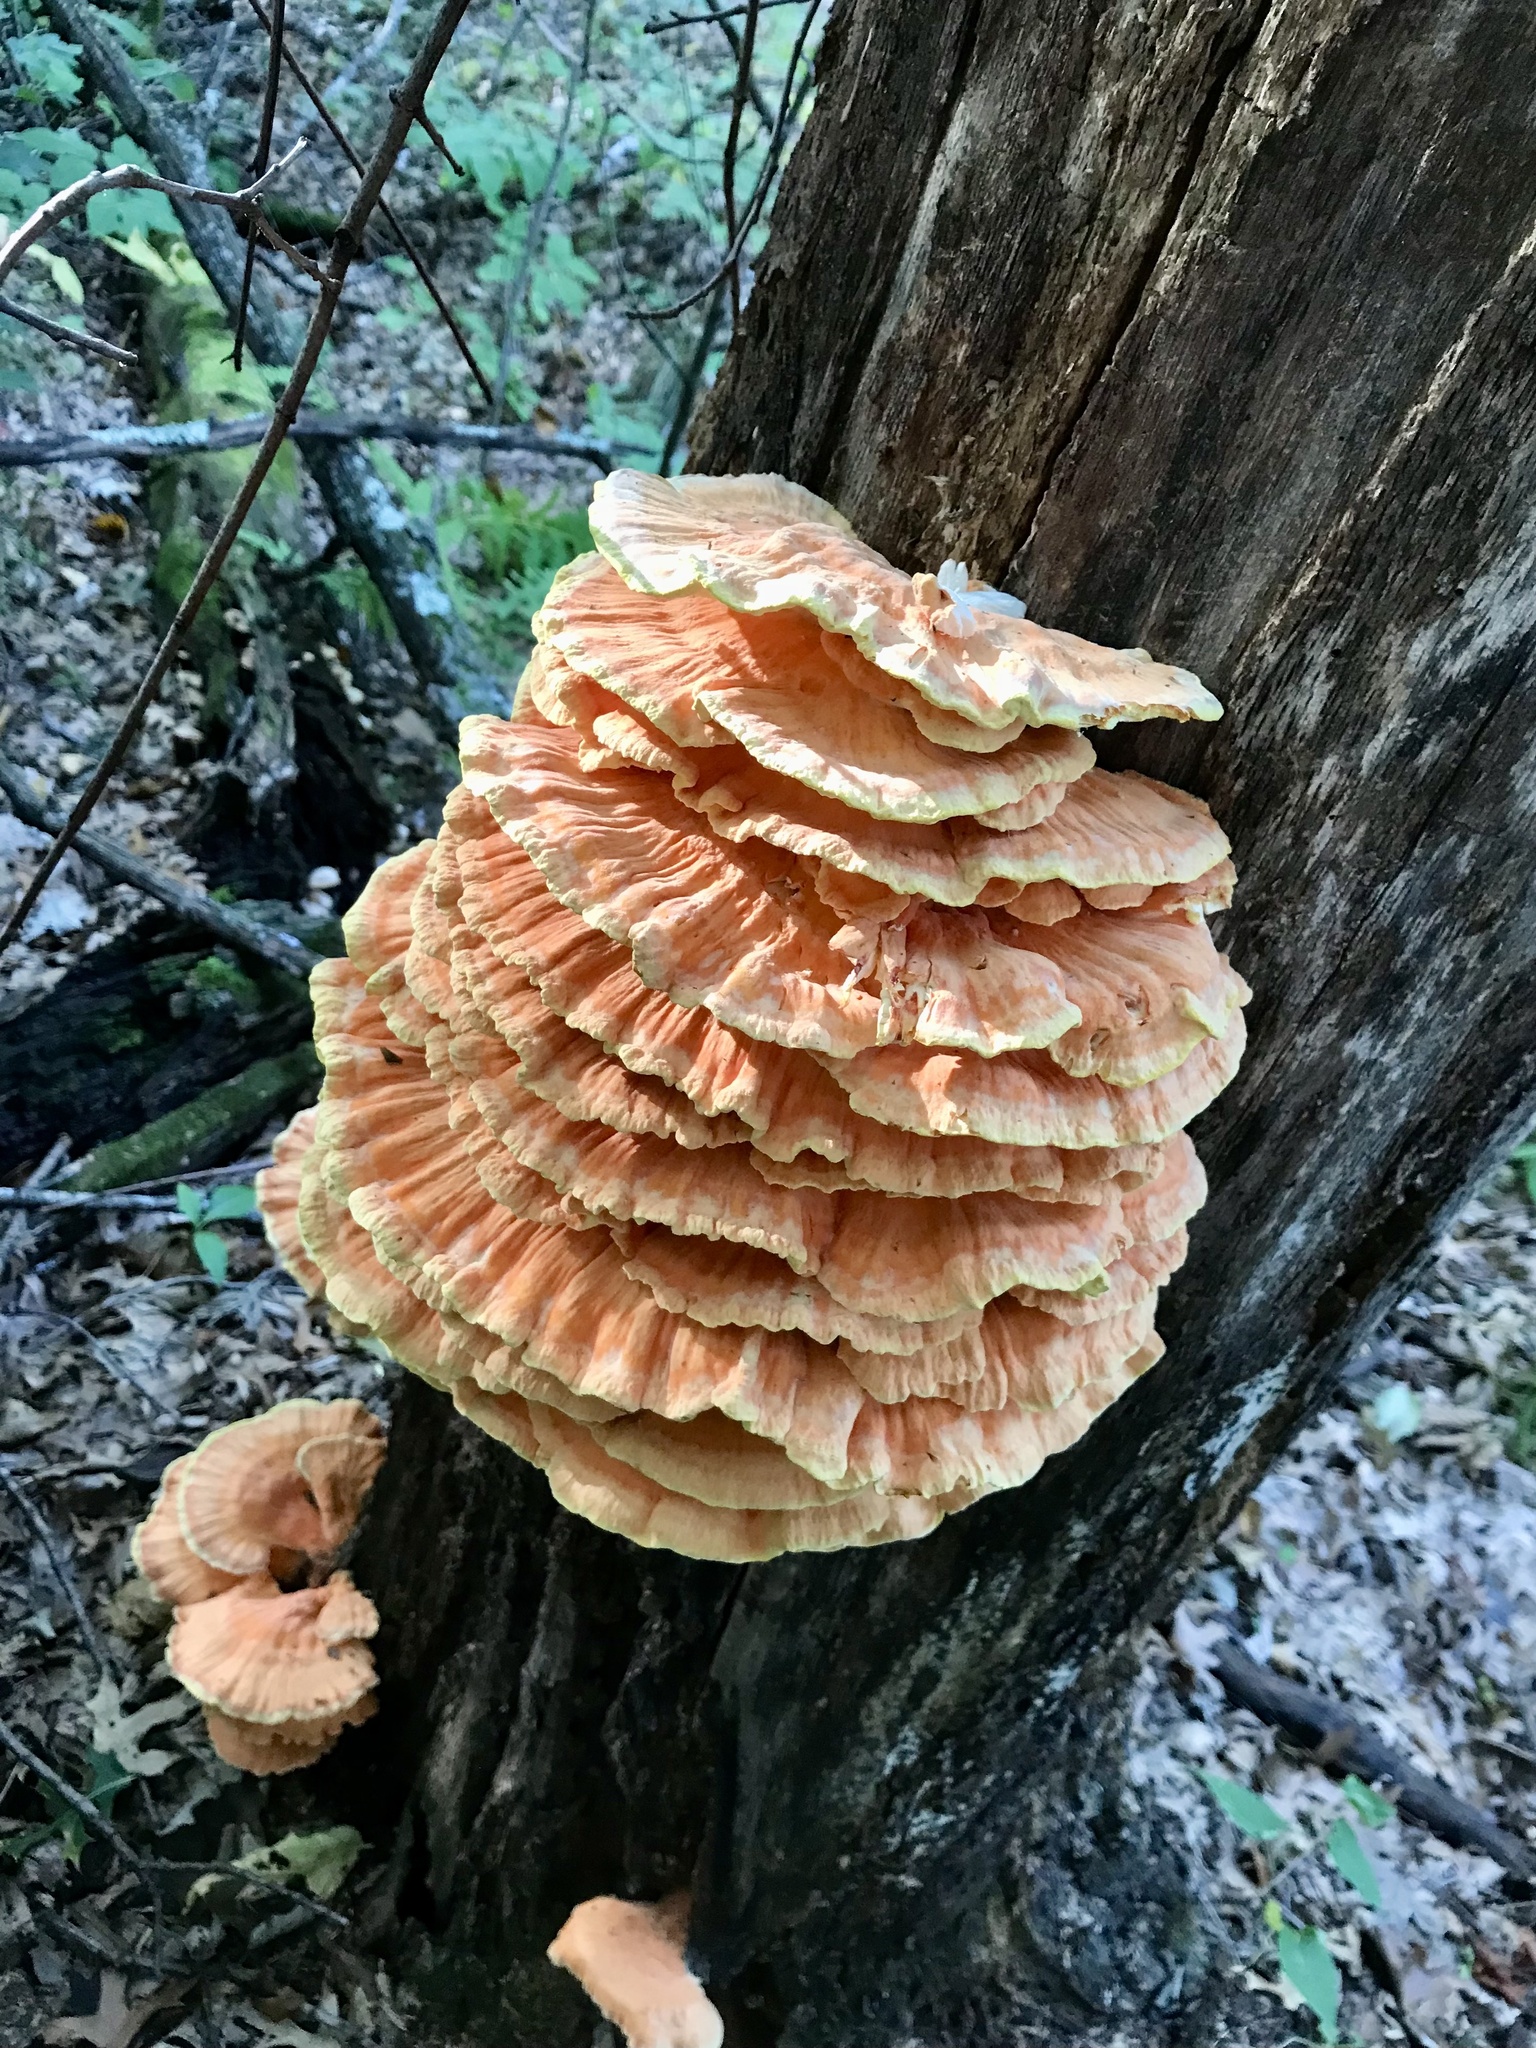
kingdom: Fungi
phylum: Basidiomycota
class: Agaricomycetes
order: Polyporales
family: Laetiporaceae
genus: Laetiporus
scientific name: Laetiporus sulphureus
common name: Chicken of the woods
